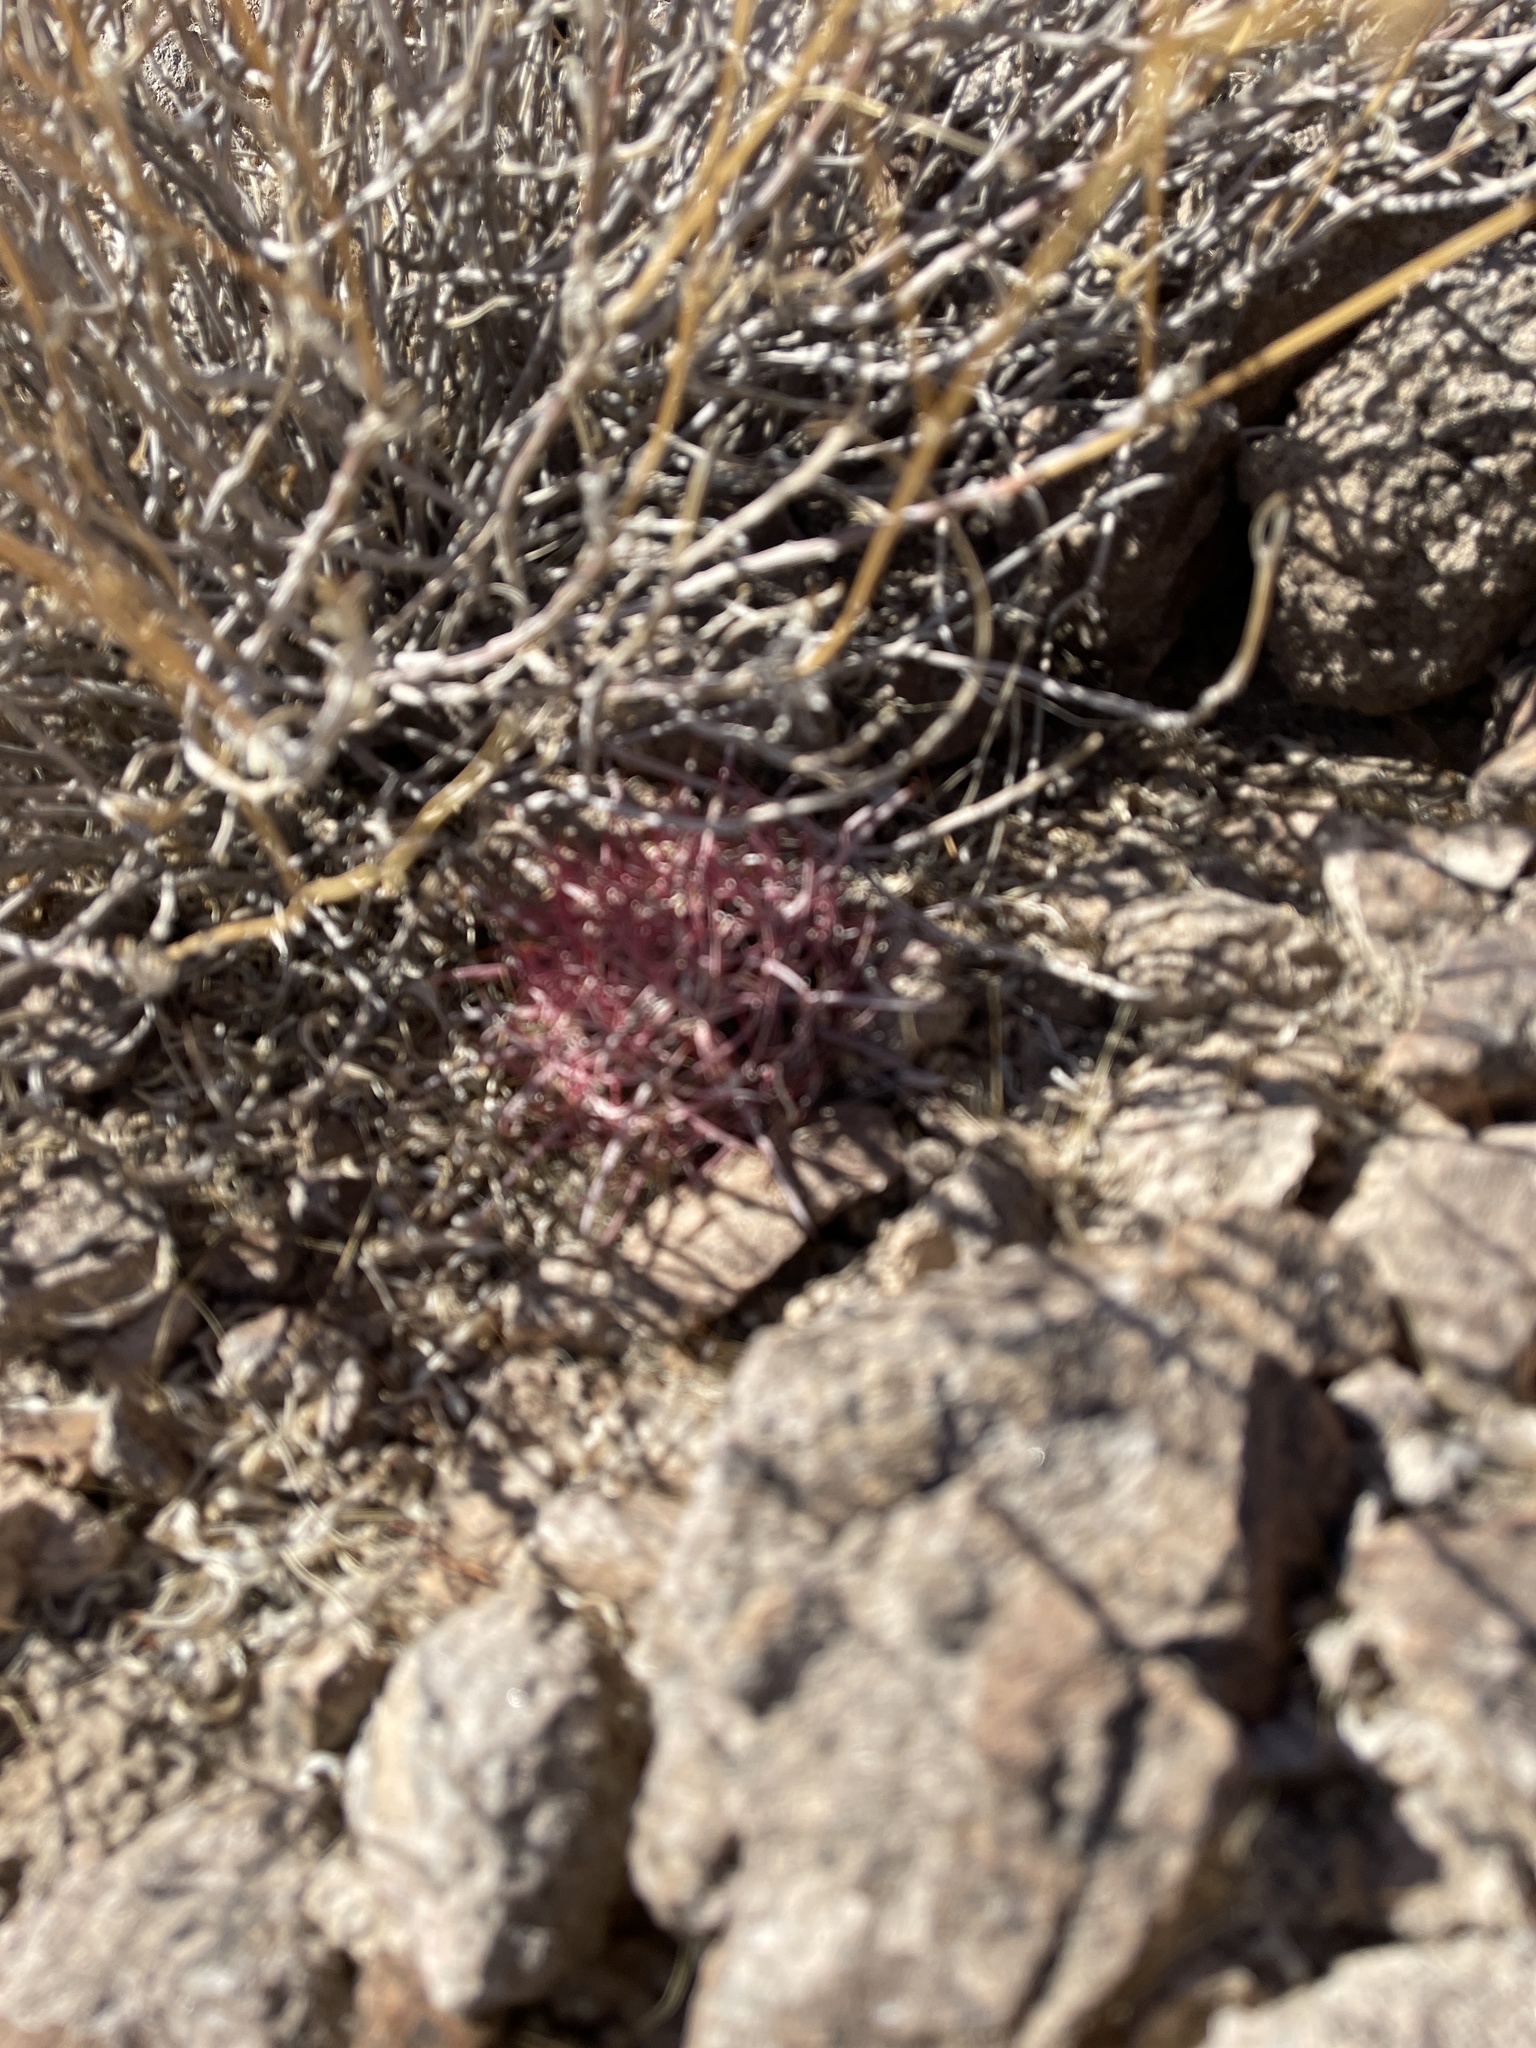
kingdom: Plantae
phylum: Tracheophyta
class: Magnoliopsida
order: Caryophyllales
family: Cactaceae
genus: Ferocactus
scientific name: Ferocactus cylindraceus
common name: California barrel cactus
